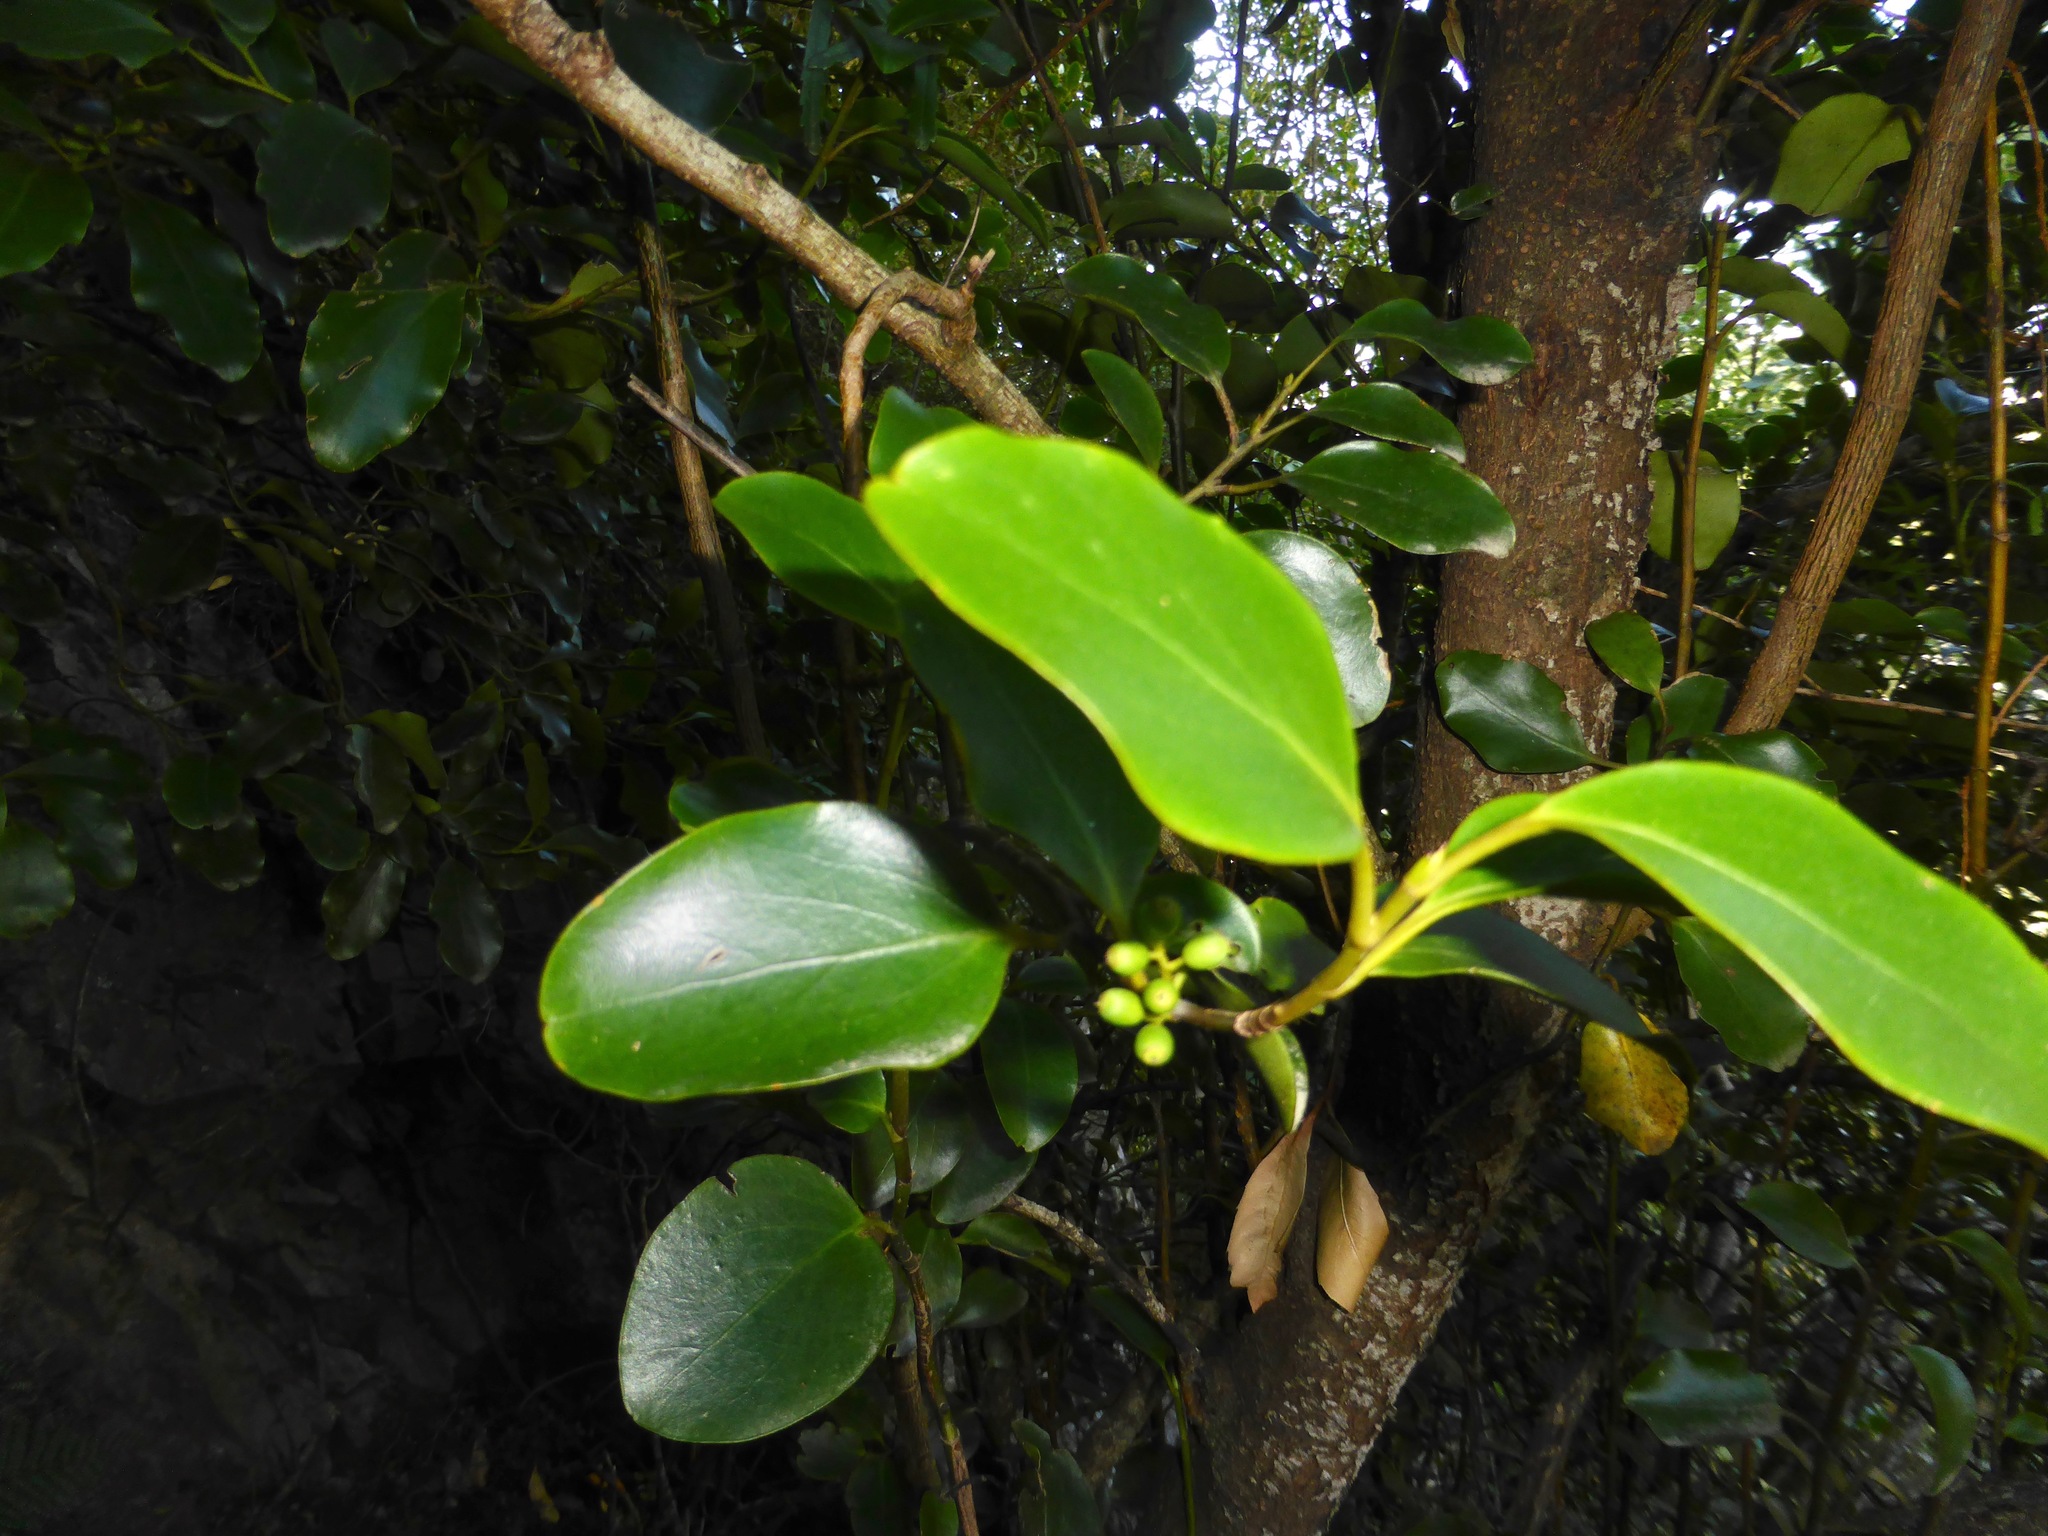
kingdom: Plantae
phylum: Tracheophyta
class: Magnoliopsida
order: Apiales
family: Griseliniaceae
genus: Griselinia
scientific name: Griselinia littoralis
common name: New zealand broadleaf
